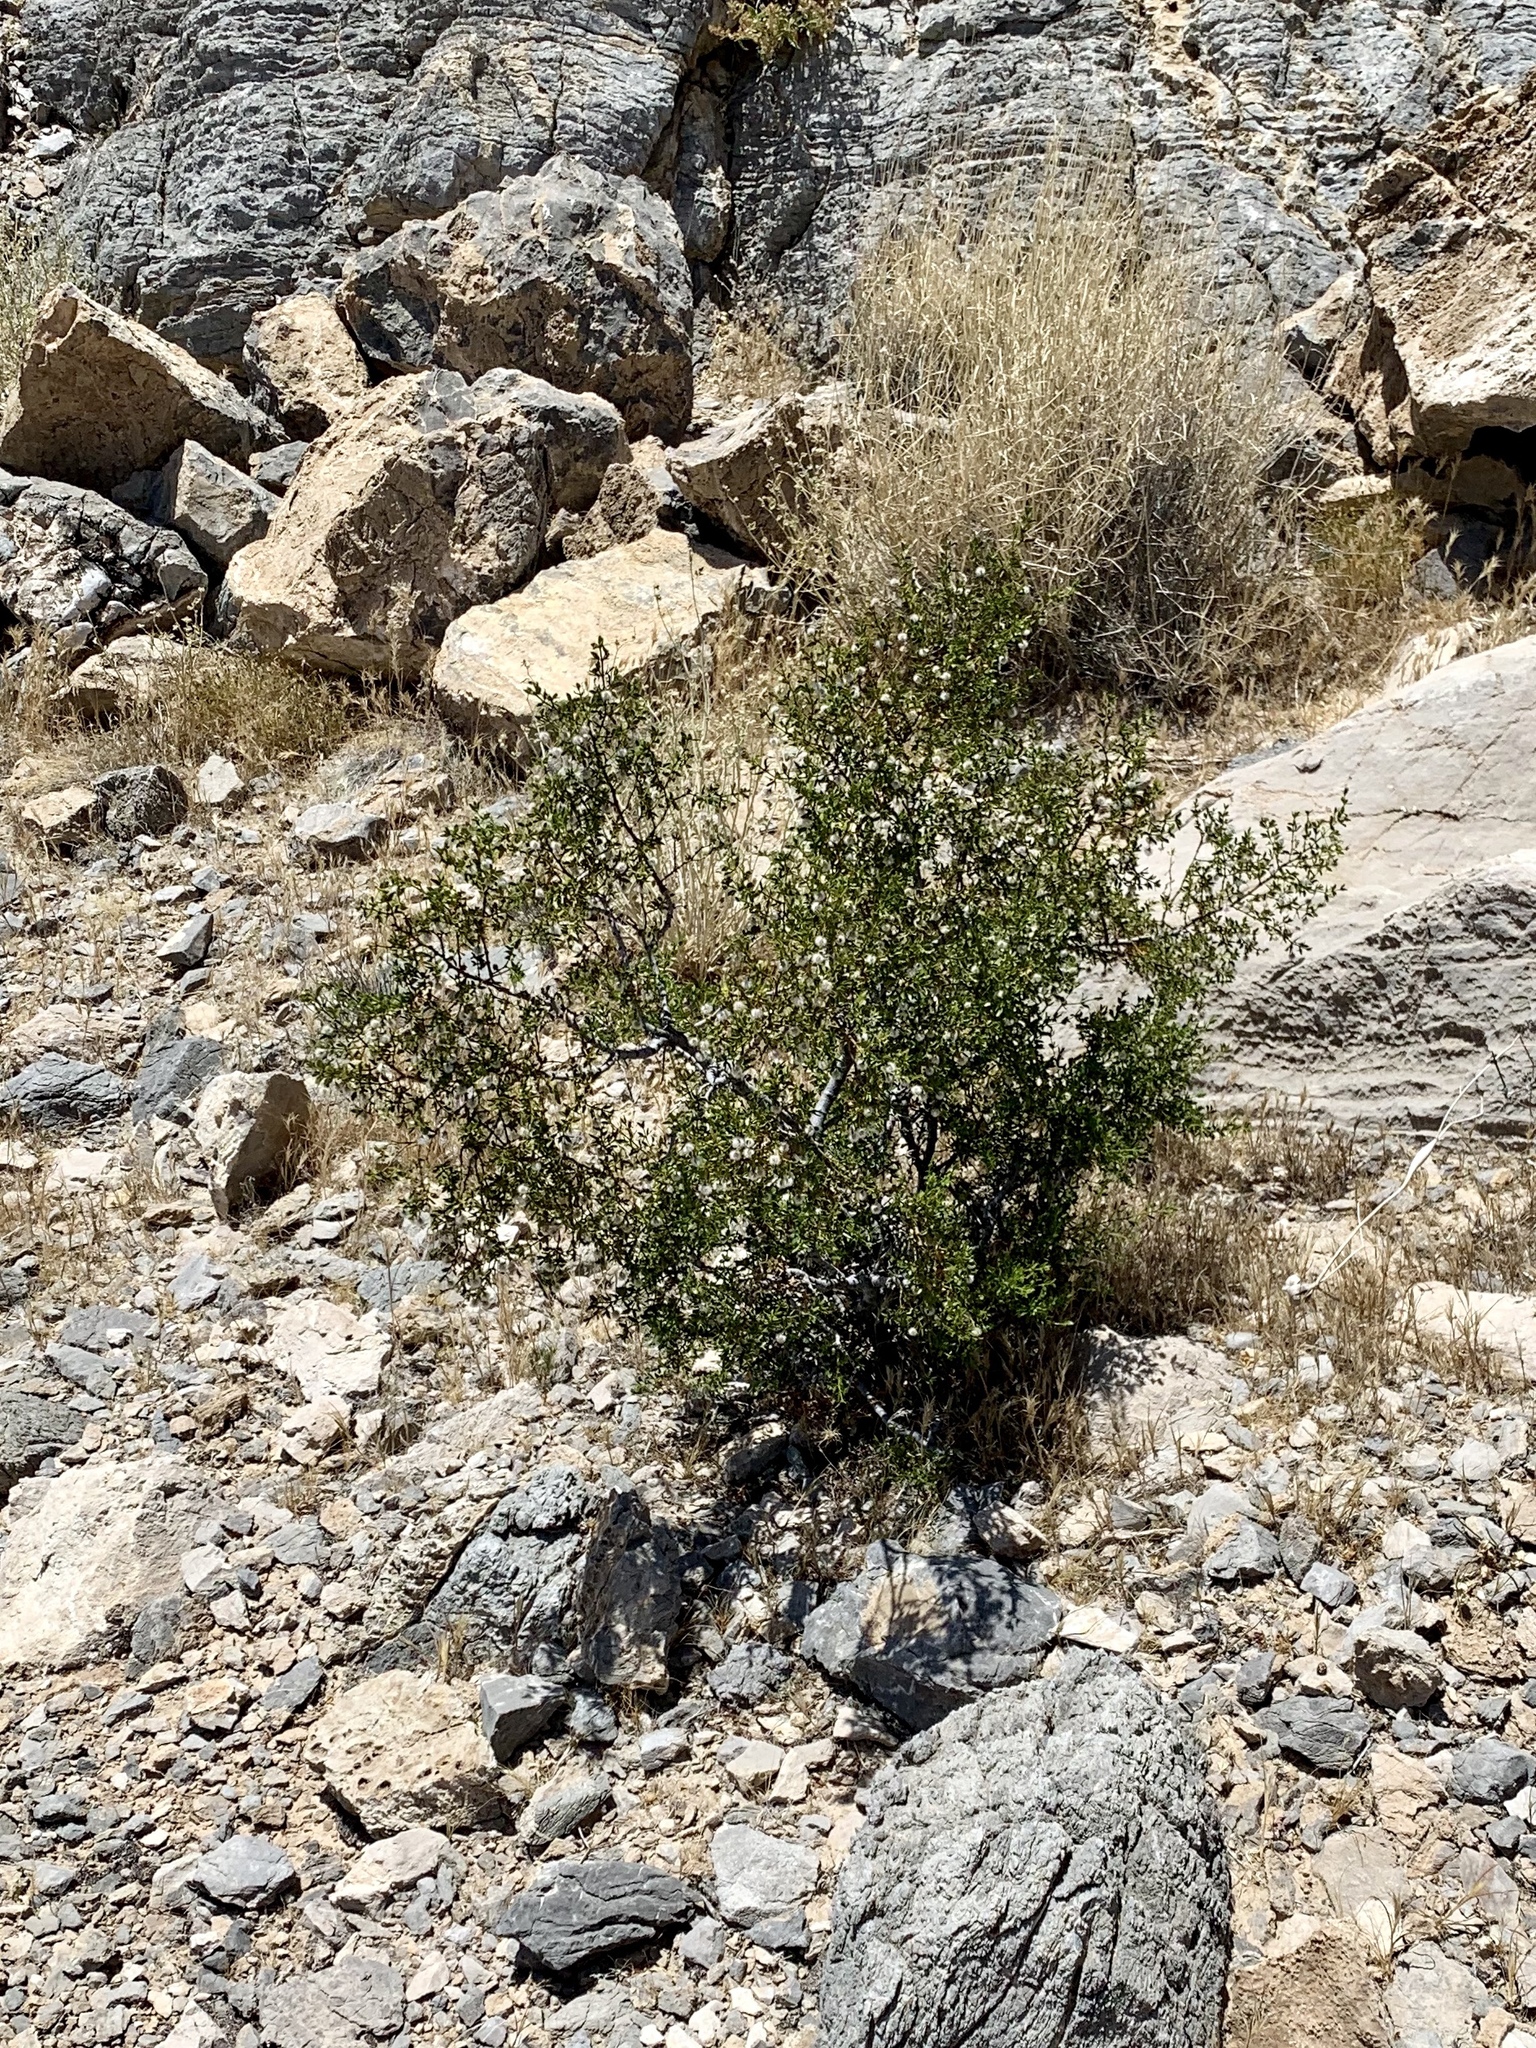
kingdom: Plantae
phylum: Tracheophyta
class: Magnoliopsida
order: Zygophyllales
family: Zygophyllaceae
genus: Larrea
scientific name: Larrea tridentata
